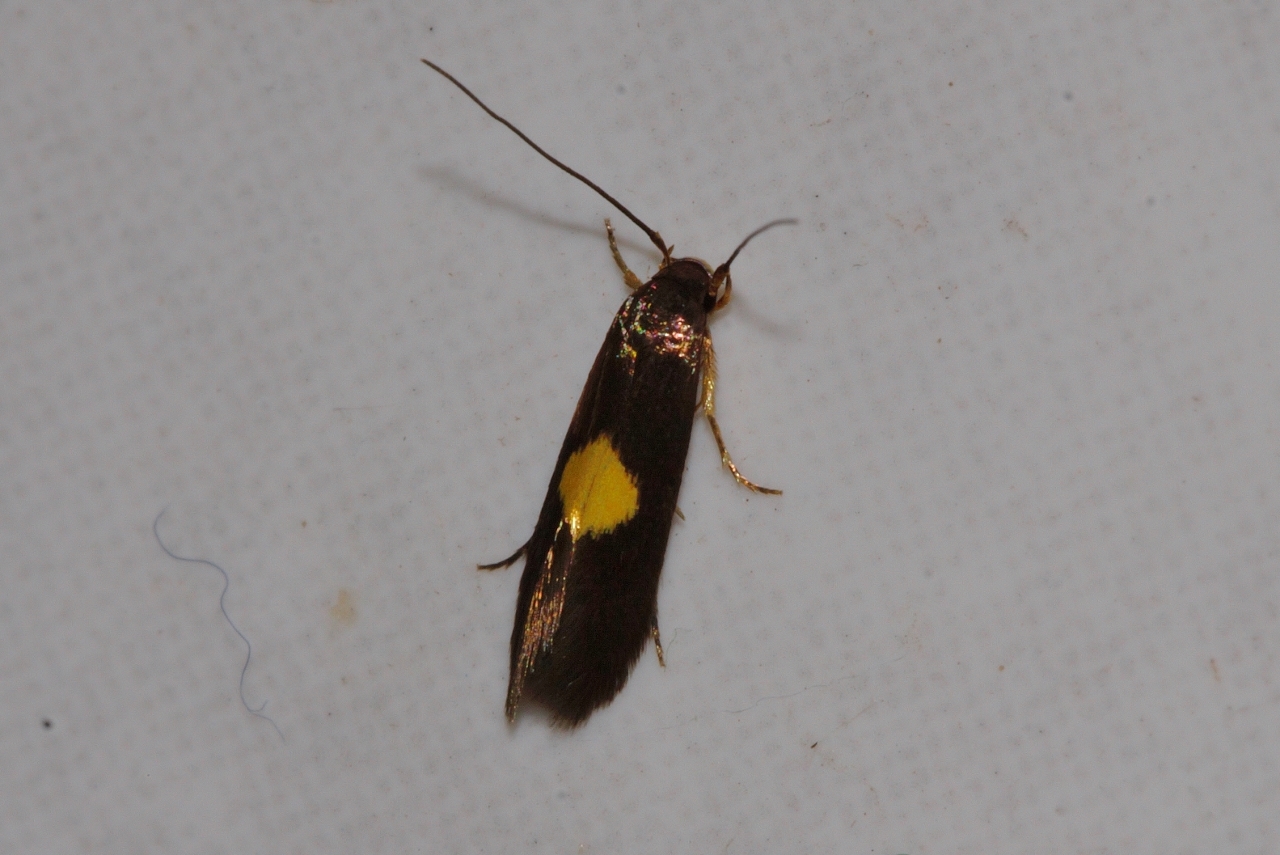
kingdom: Animalia
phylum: Arthropoda
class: Insecta
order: Lepidoptera
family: Tineidae
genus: Wegneria
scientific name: Wegneria chrysophthalma
